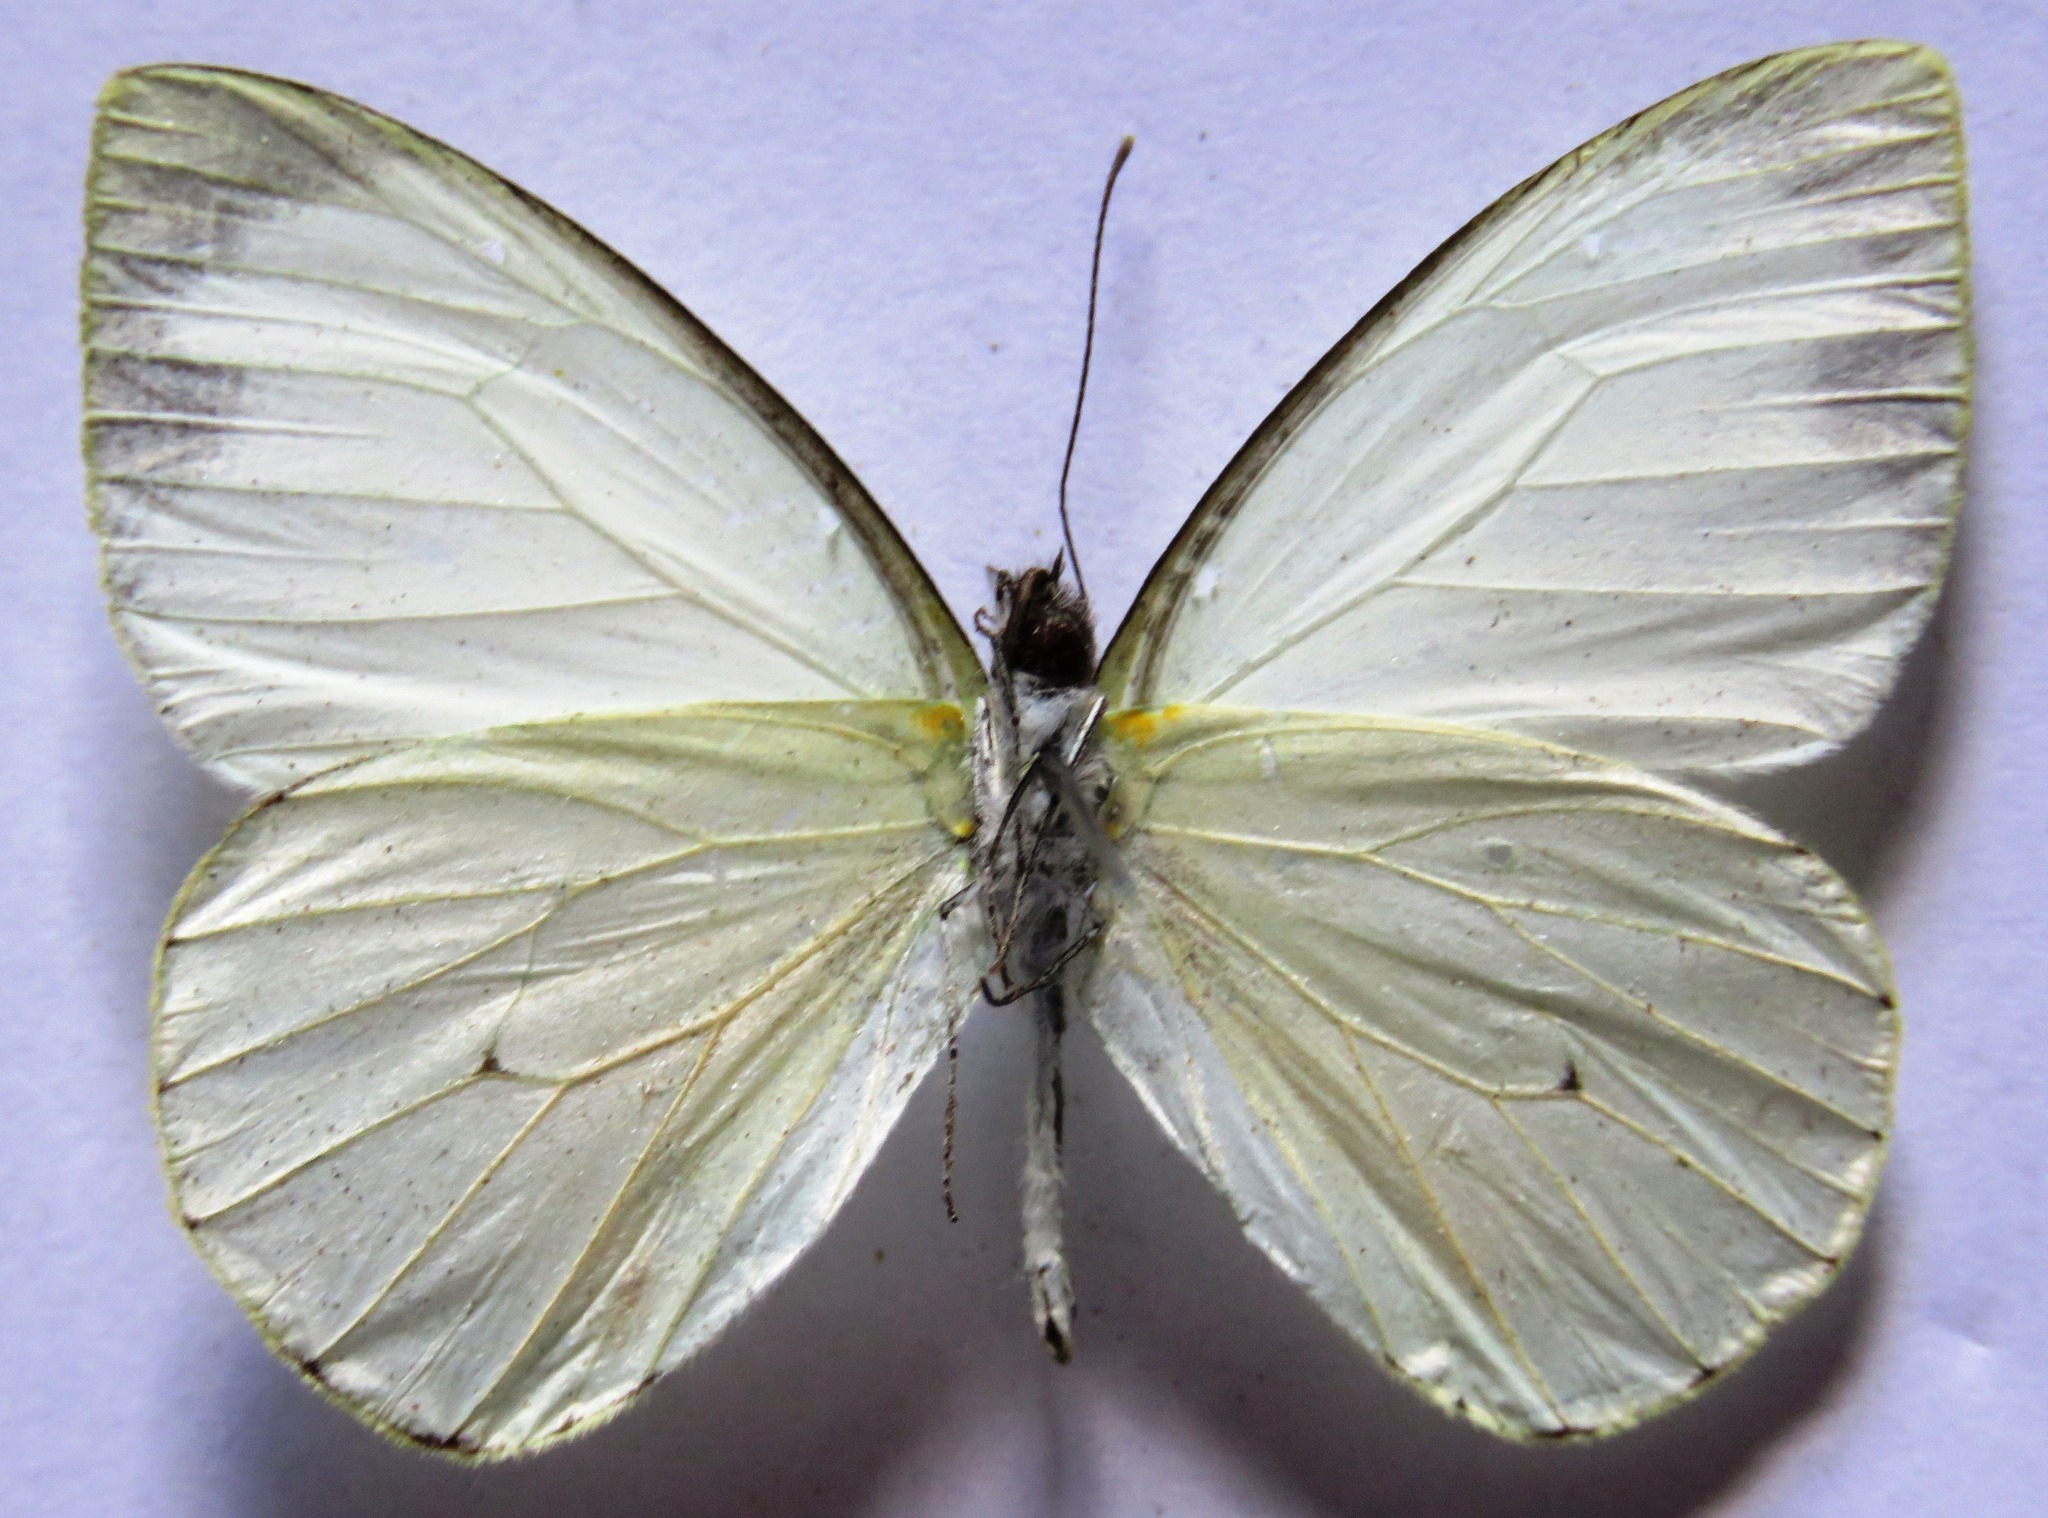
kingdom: Animalia
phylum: Arthropoda
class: Insecta
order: Lepidoptera
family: Pieridae
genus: Leptophobia
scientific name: Leptophobia aripa
